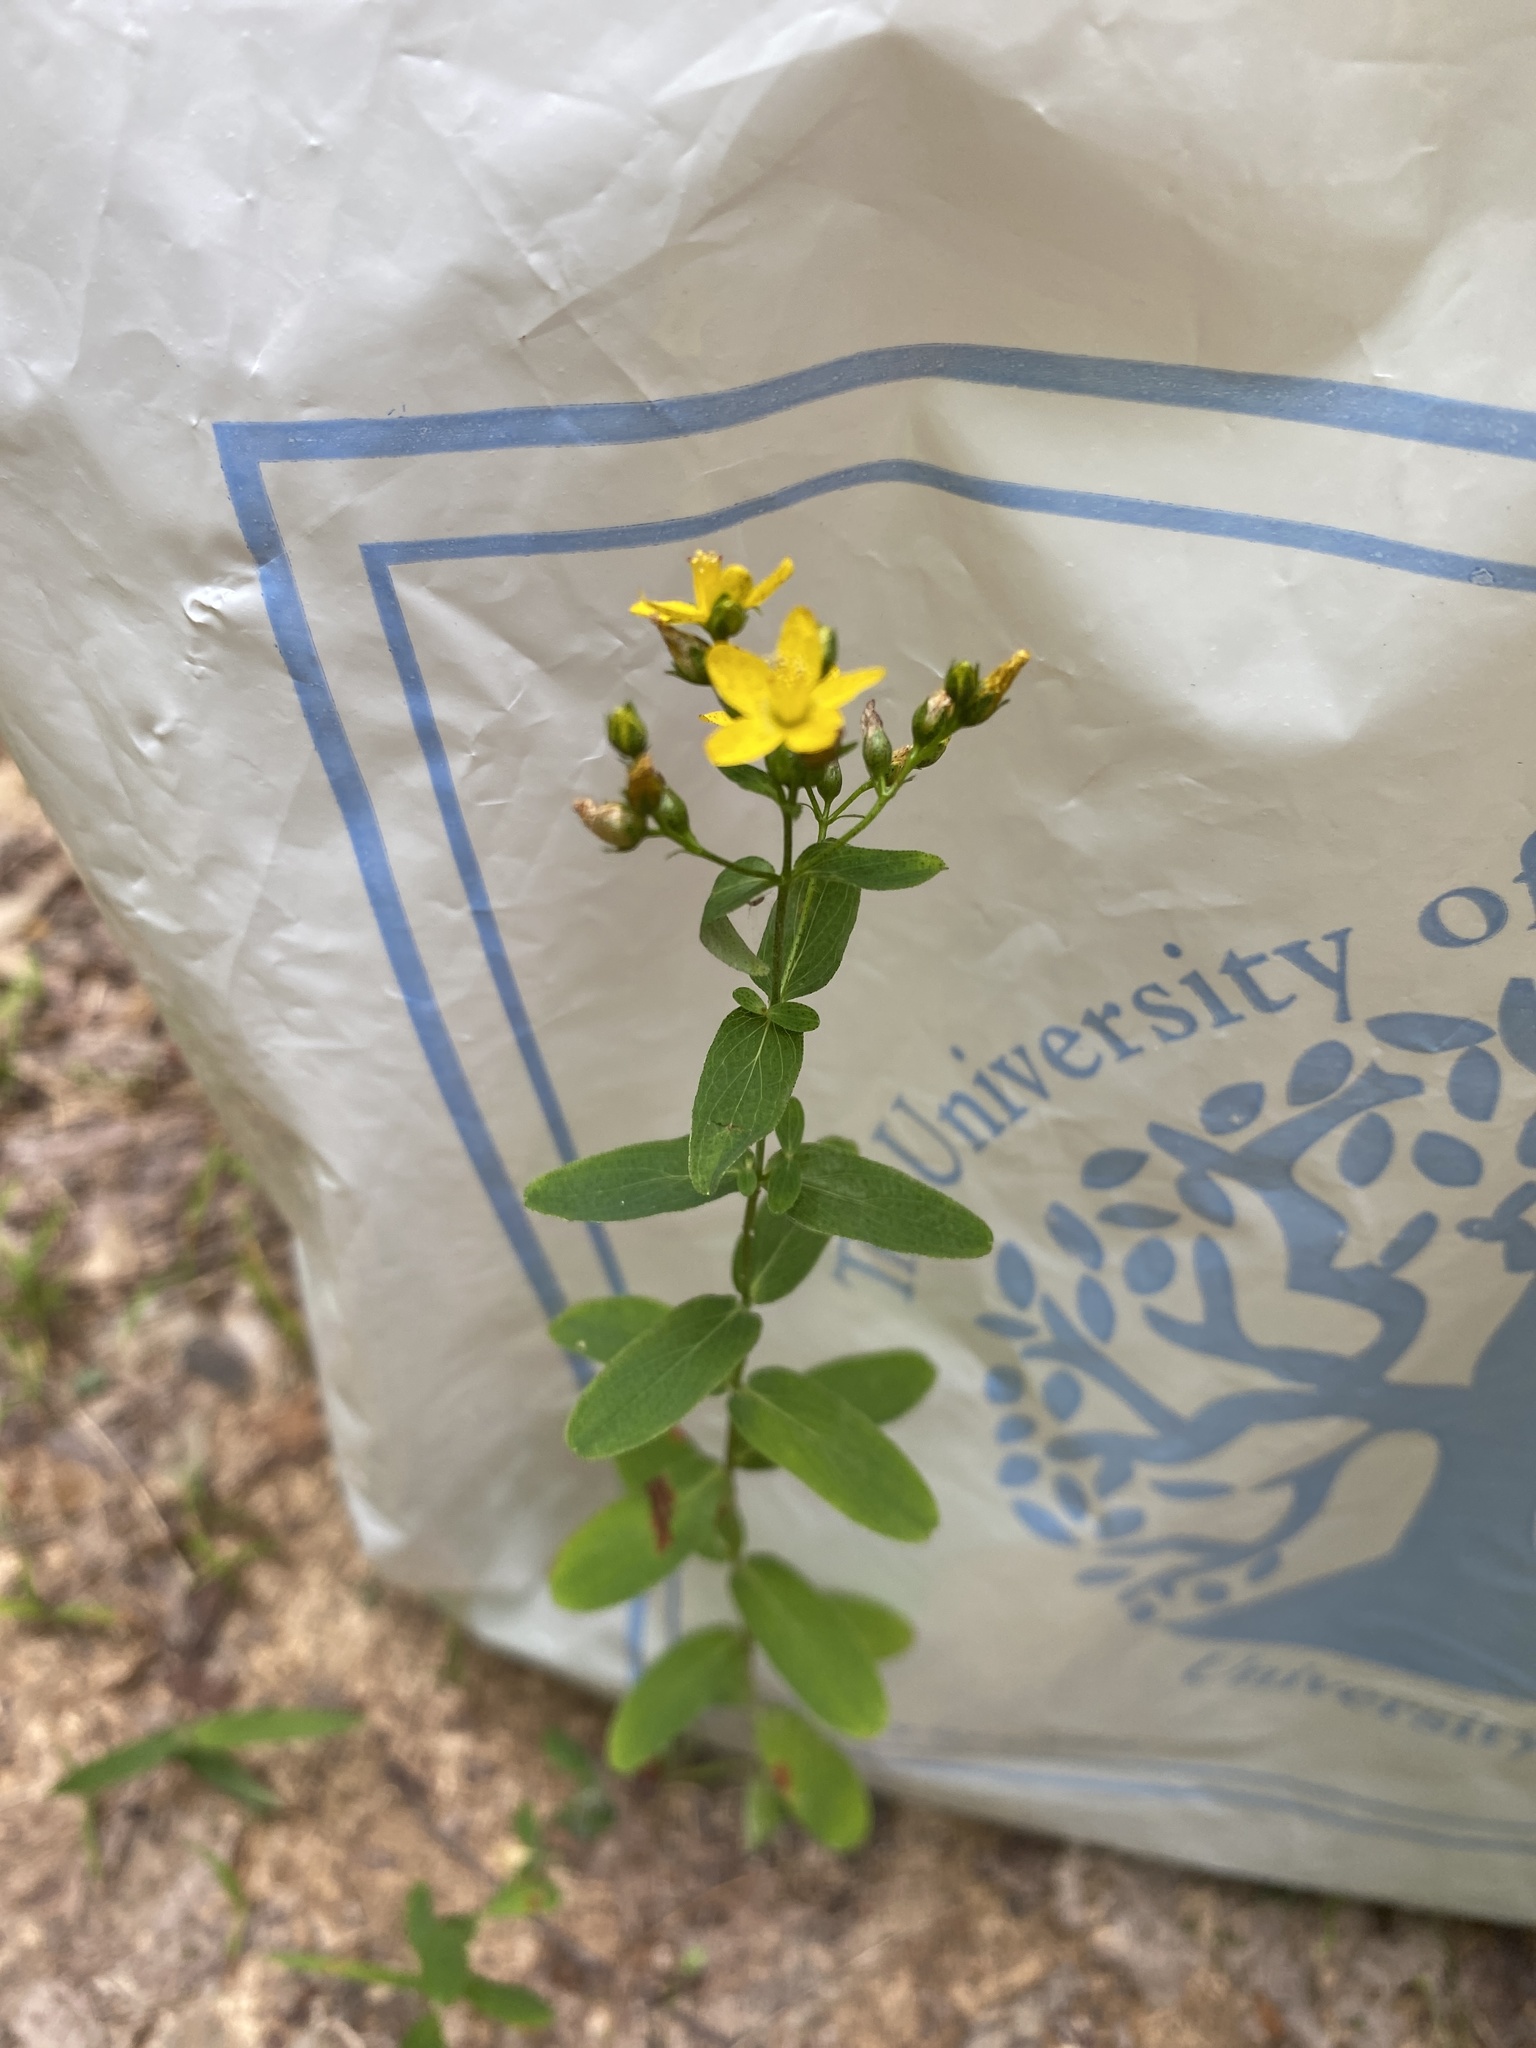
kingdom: Plantae
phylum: Tracheophyta
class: Magnoliopsida
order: Malpighiales
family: Hypericaceae
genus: Hypericum
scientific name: Hypericum punctatum
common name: Spotted st. john's-wort
